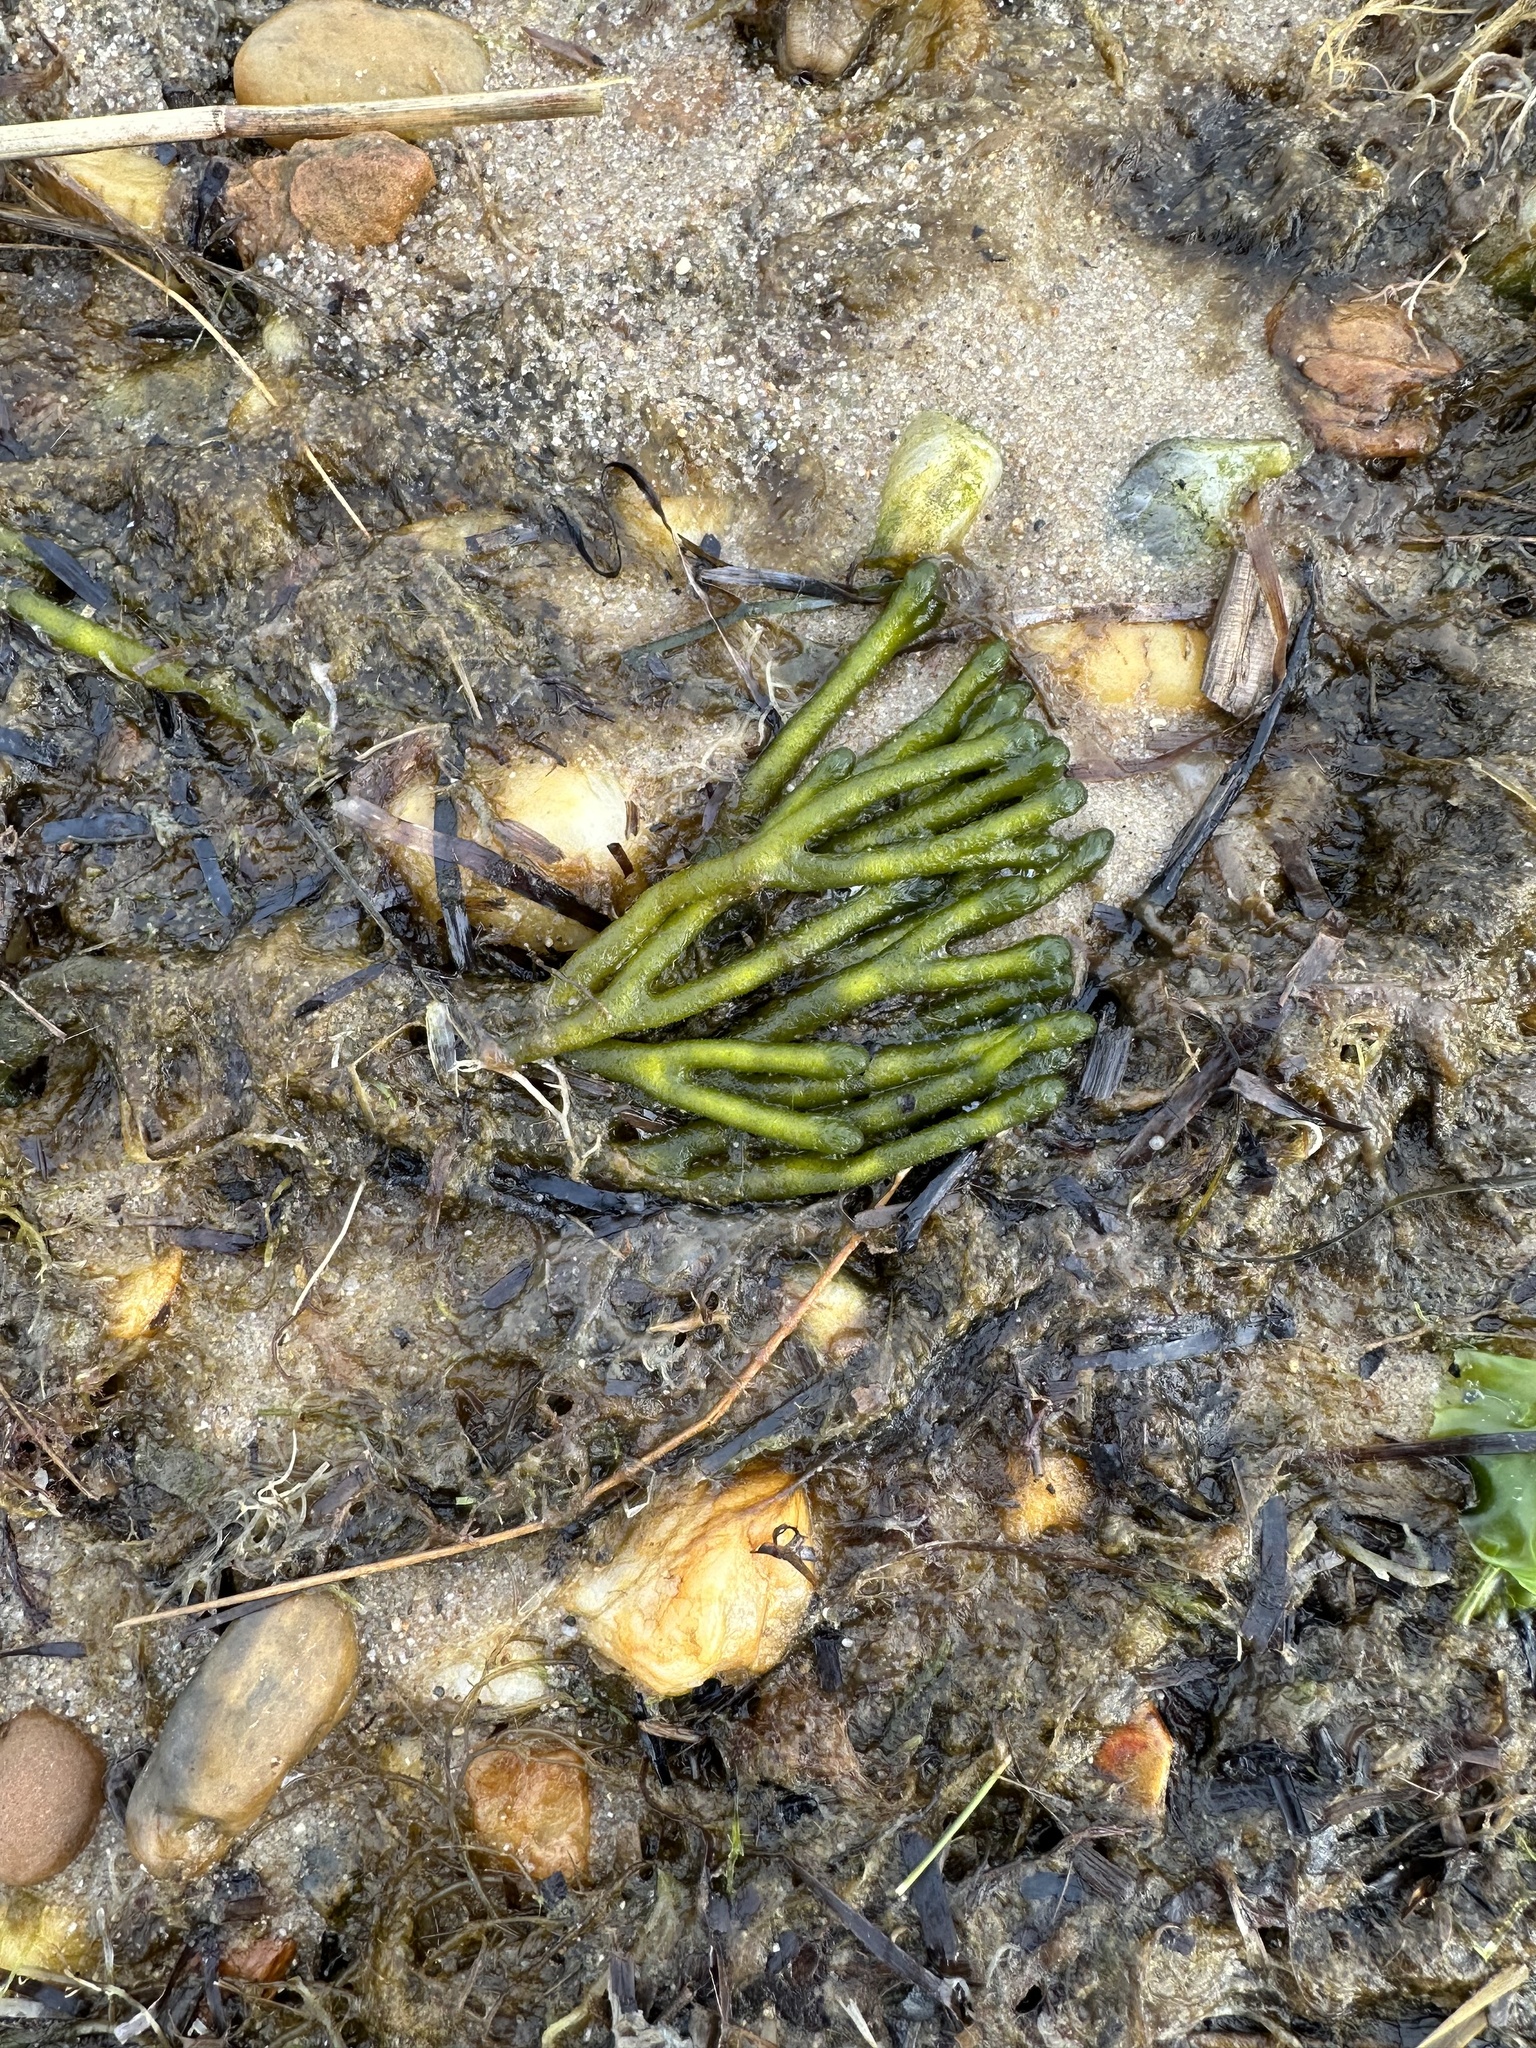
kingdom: Plantae
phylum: Chlorophyta
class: Ulvophyceae
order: Bryopsidales
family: Codiaceae
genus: Codium
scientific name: Codium fragile
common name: Dead man's fingers
